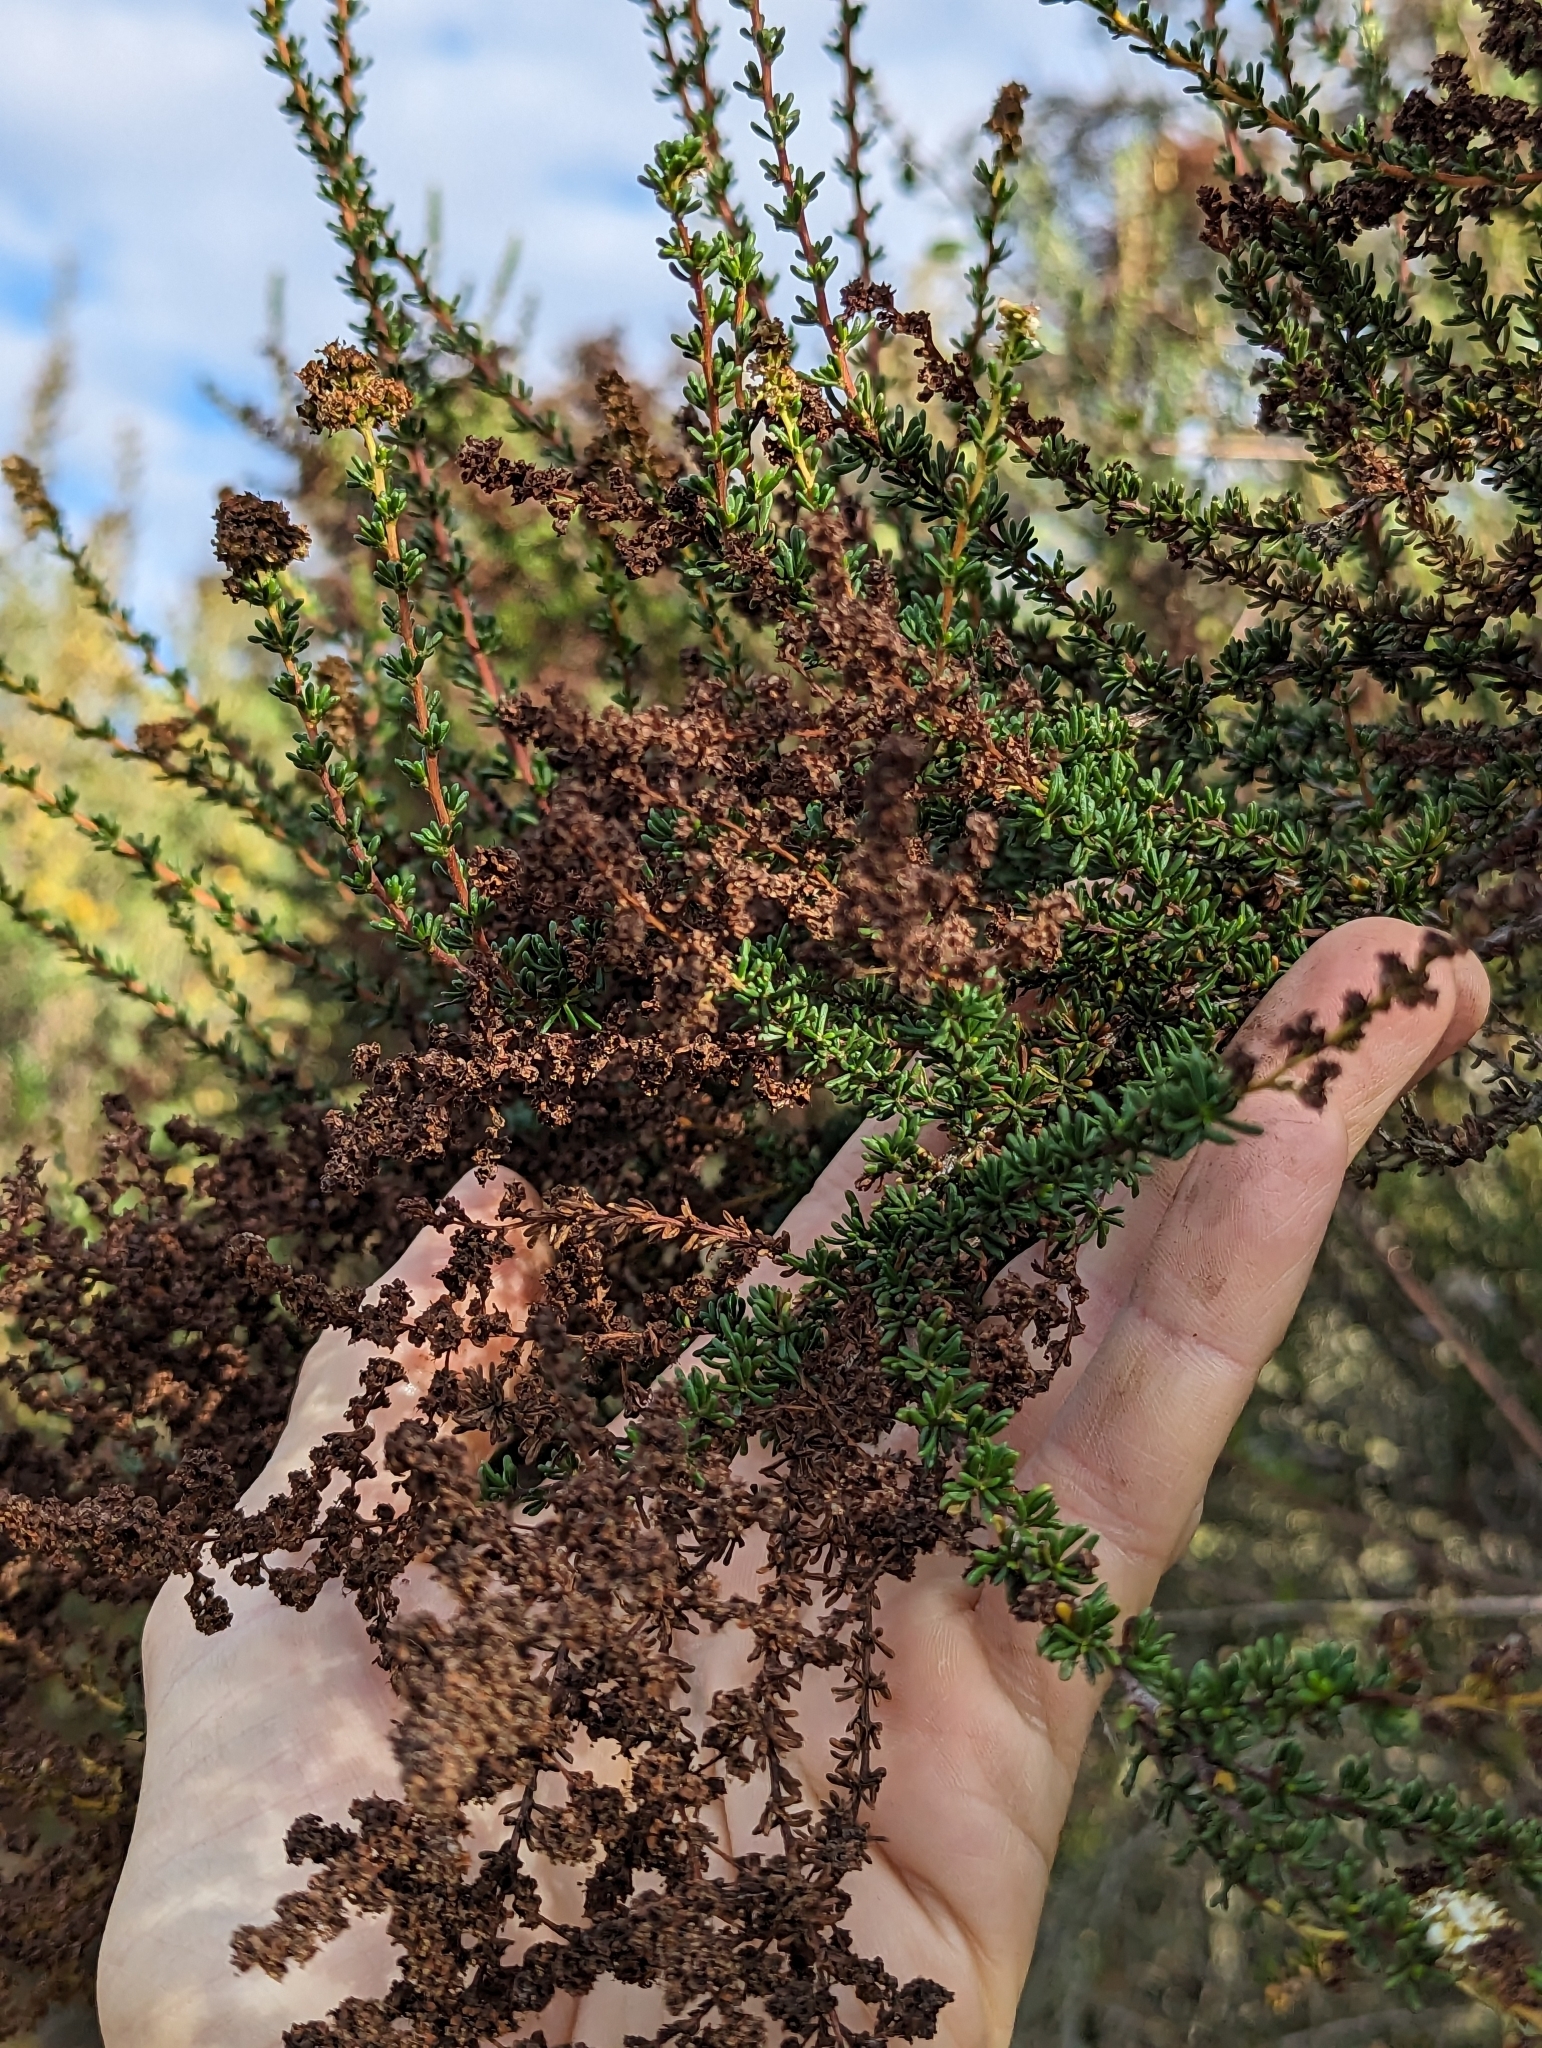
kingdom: Plantae
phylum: Tracheophyta
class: Magnoliopsida
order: Rosales
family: Rosaceae
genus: Adenostoma
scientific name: Adenostoma fasciculatum
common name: Chamise
